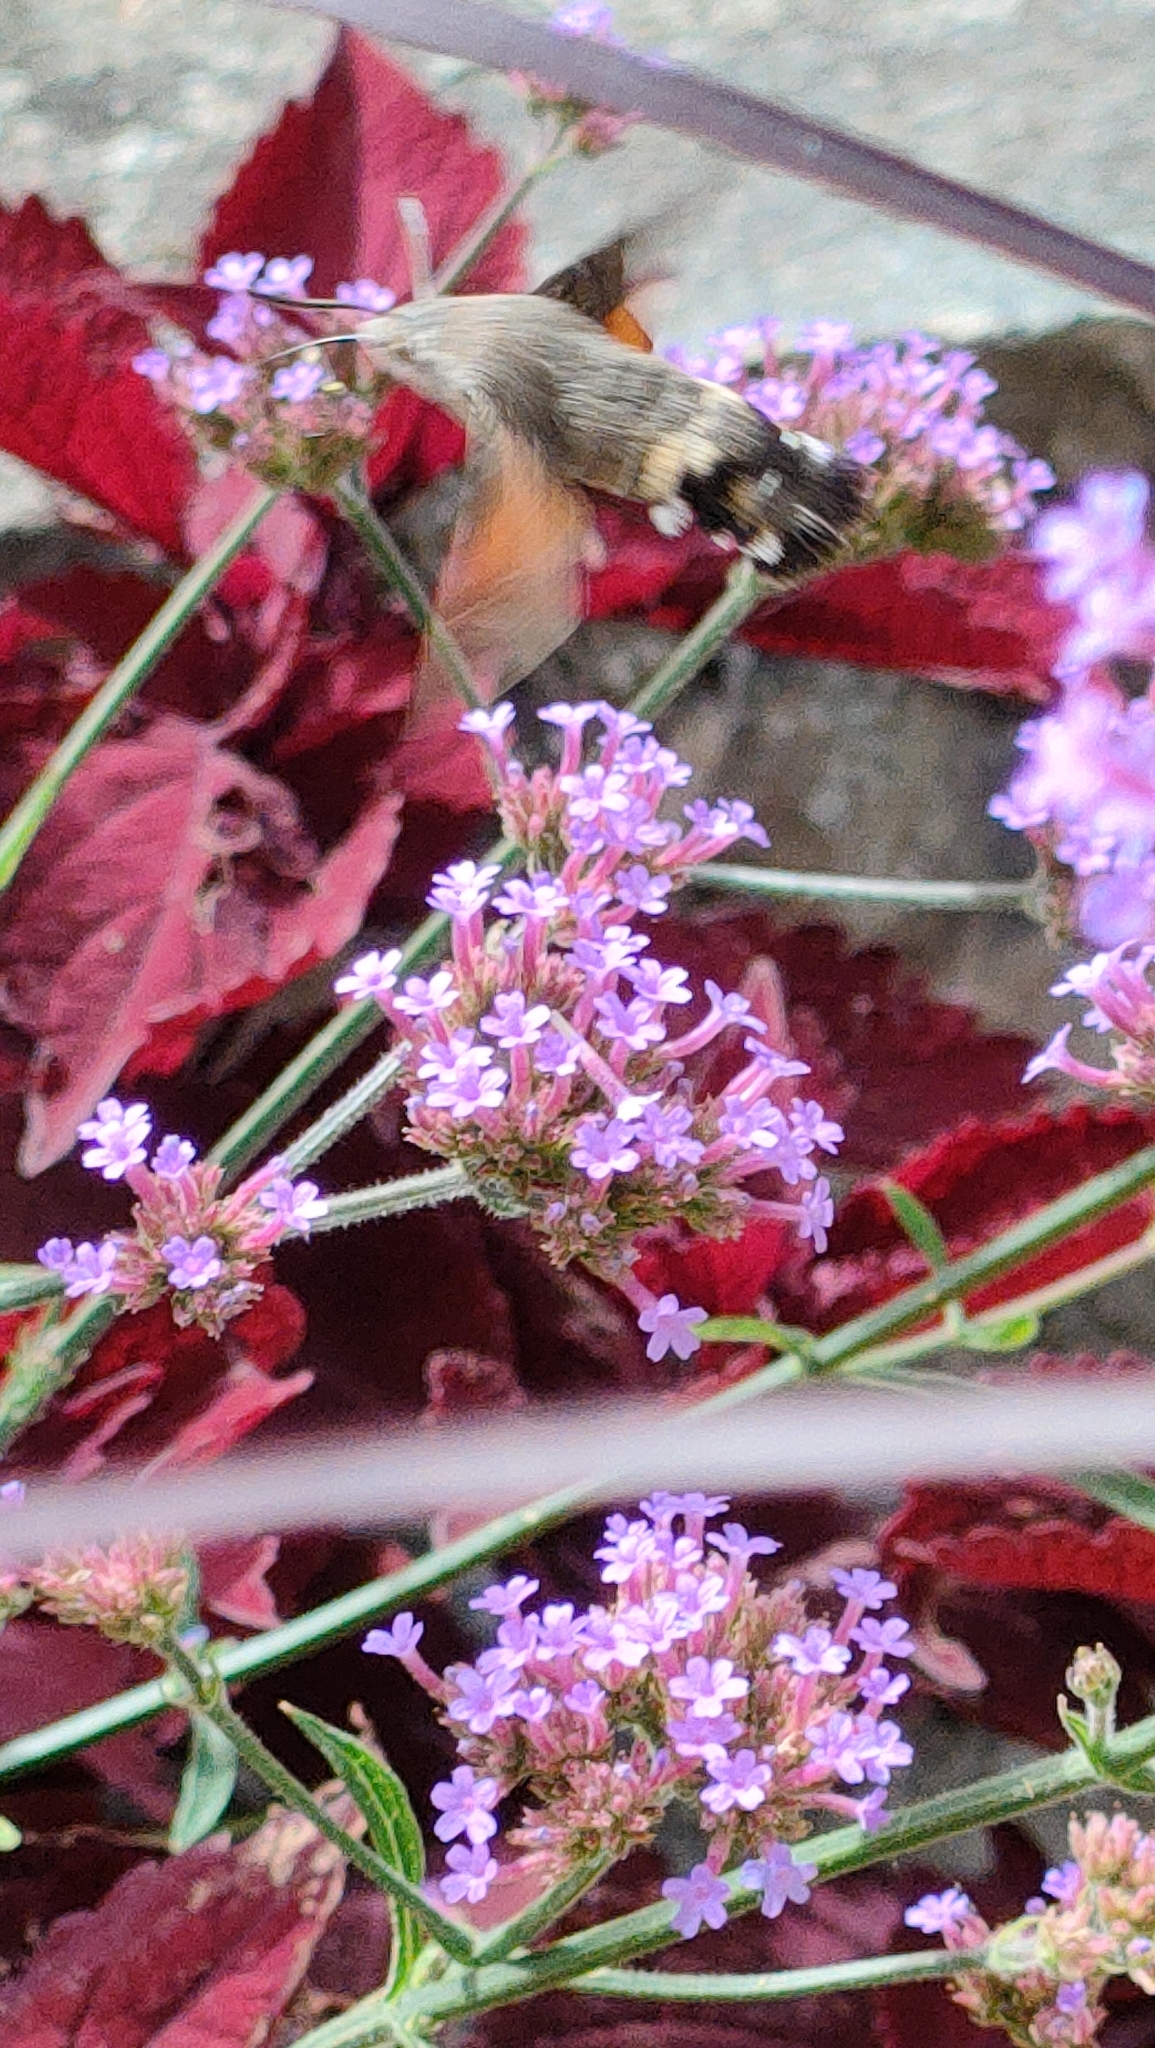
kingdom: Animalia
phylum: Arthropoda
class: Insecta
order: Lepidoptera
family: Sphingidae
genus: Macroglossum
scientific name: Macroglossum stellatarum
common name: Humming-bird hawk-moth
